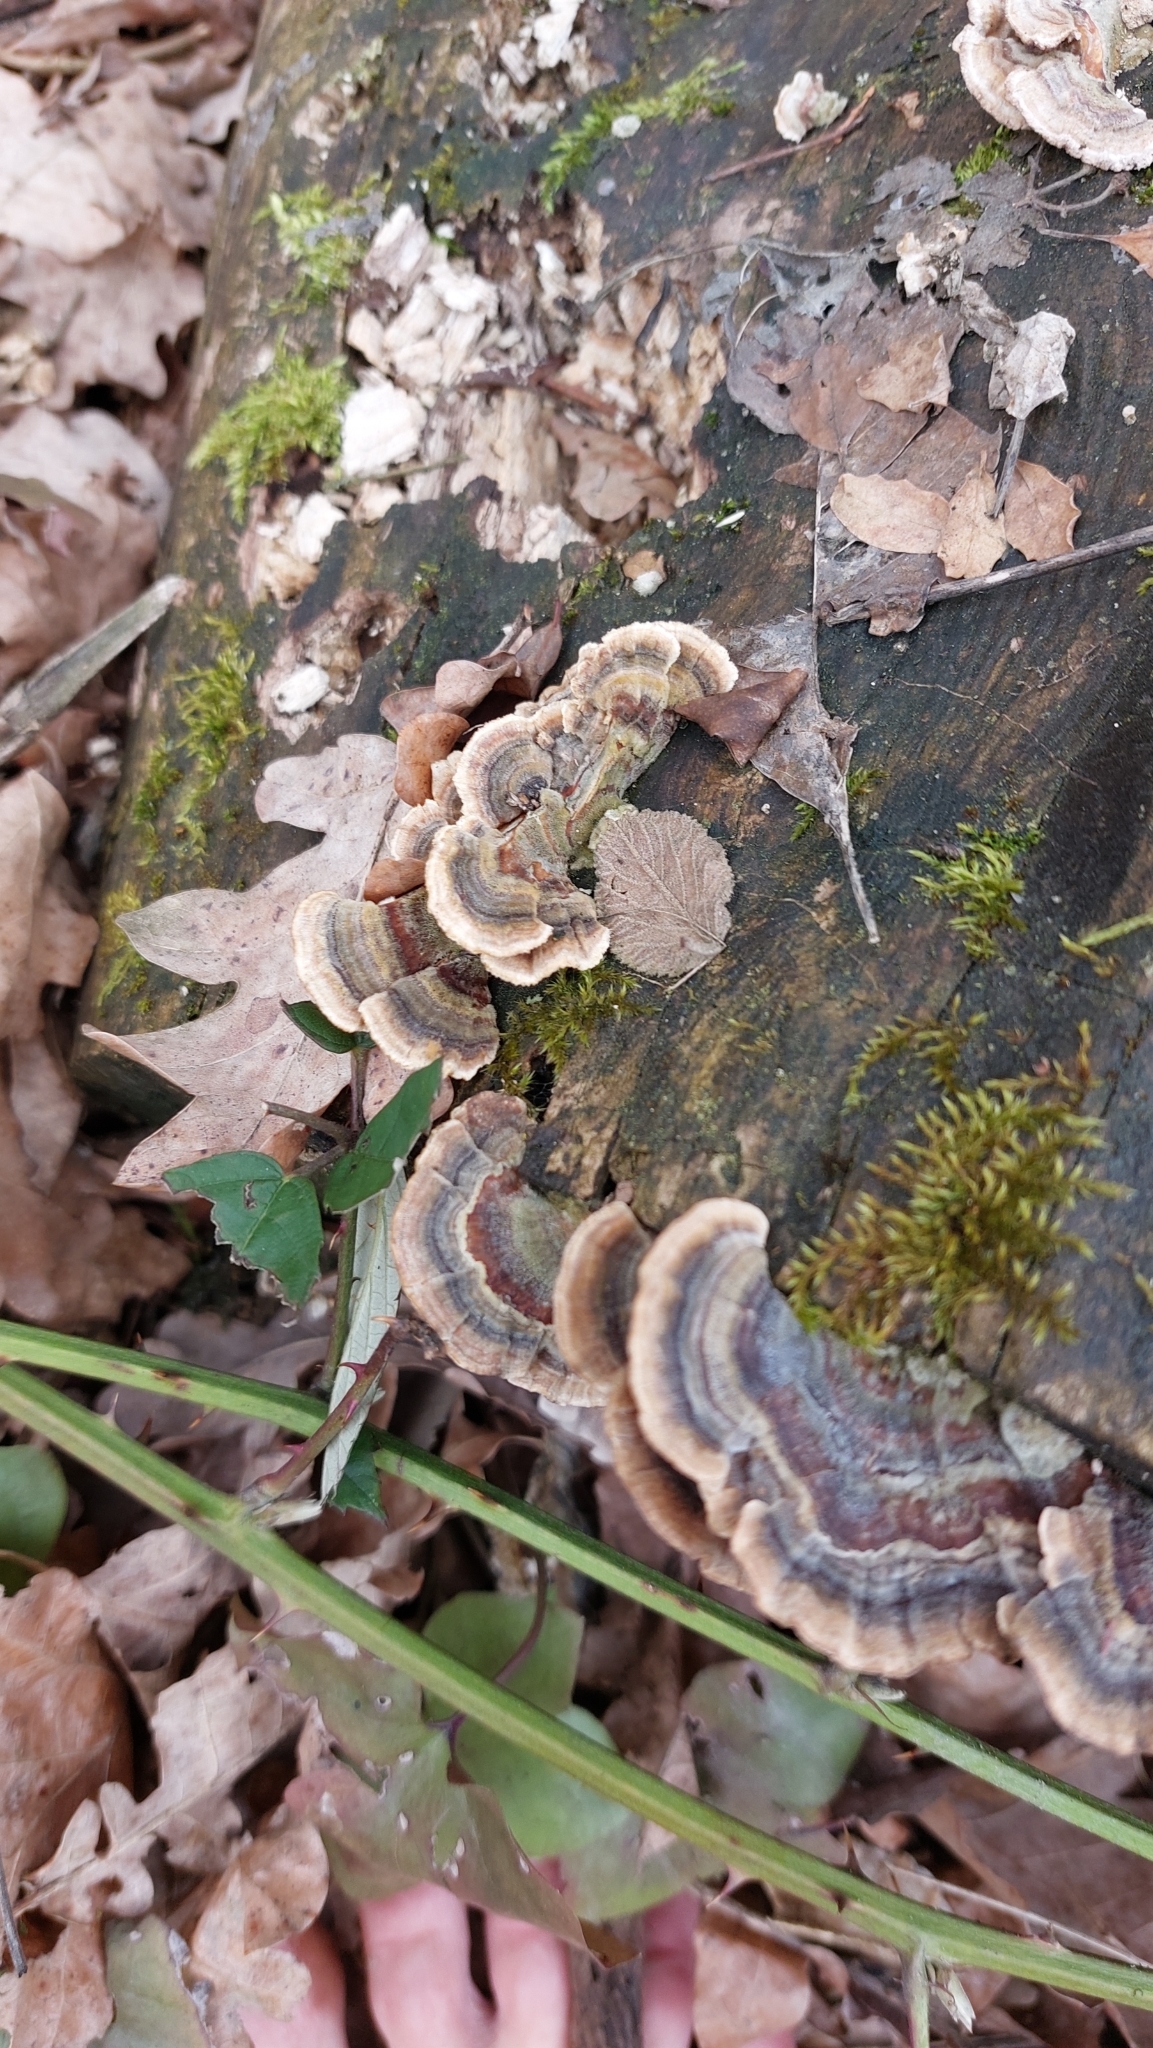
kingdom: Fungi
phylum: Basidiomycota
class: Agaricomycetes
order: Polyporales
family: Polyporaceae
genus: Trametes
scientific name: Trametes versicolor
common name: Turkeytail
